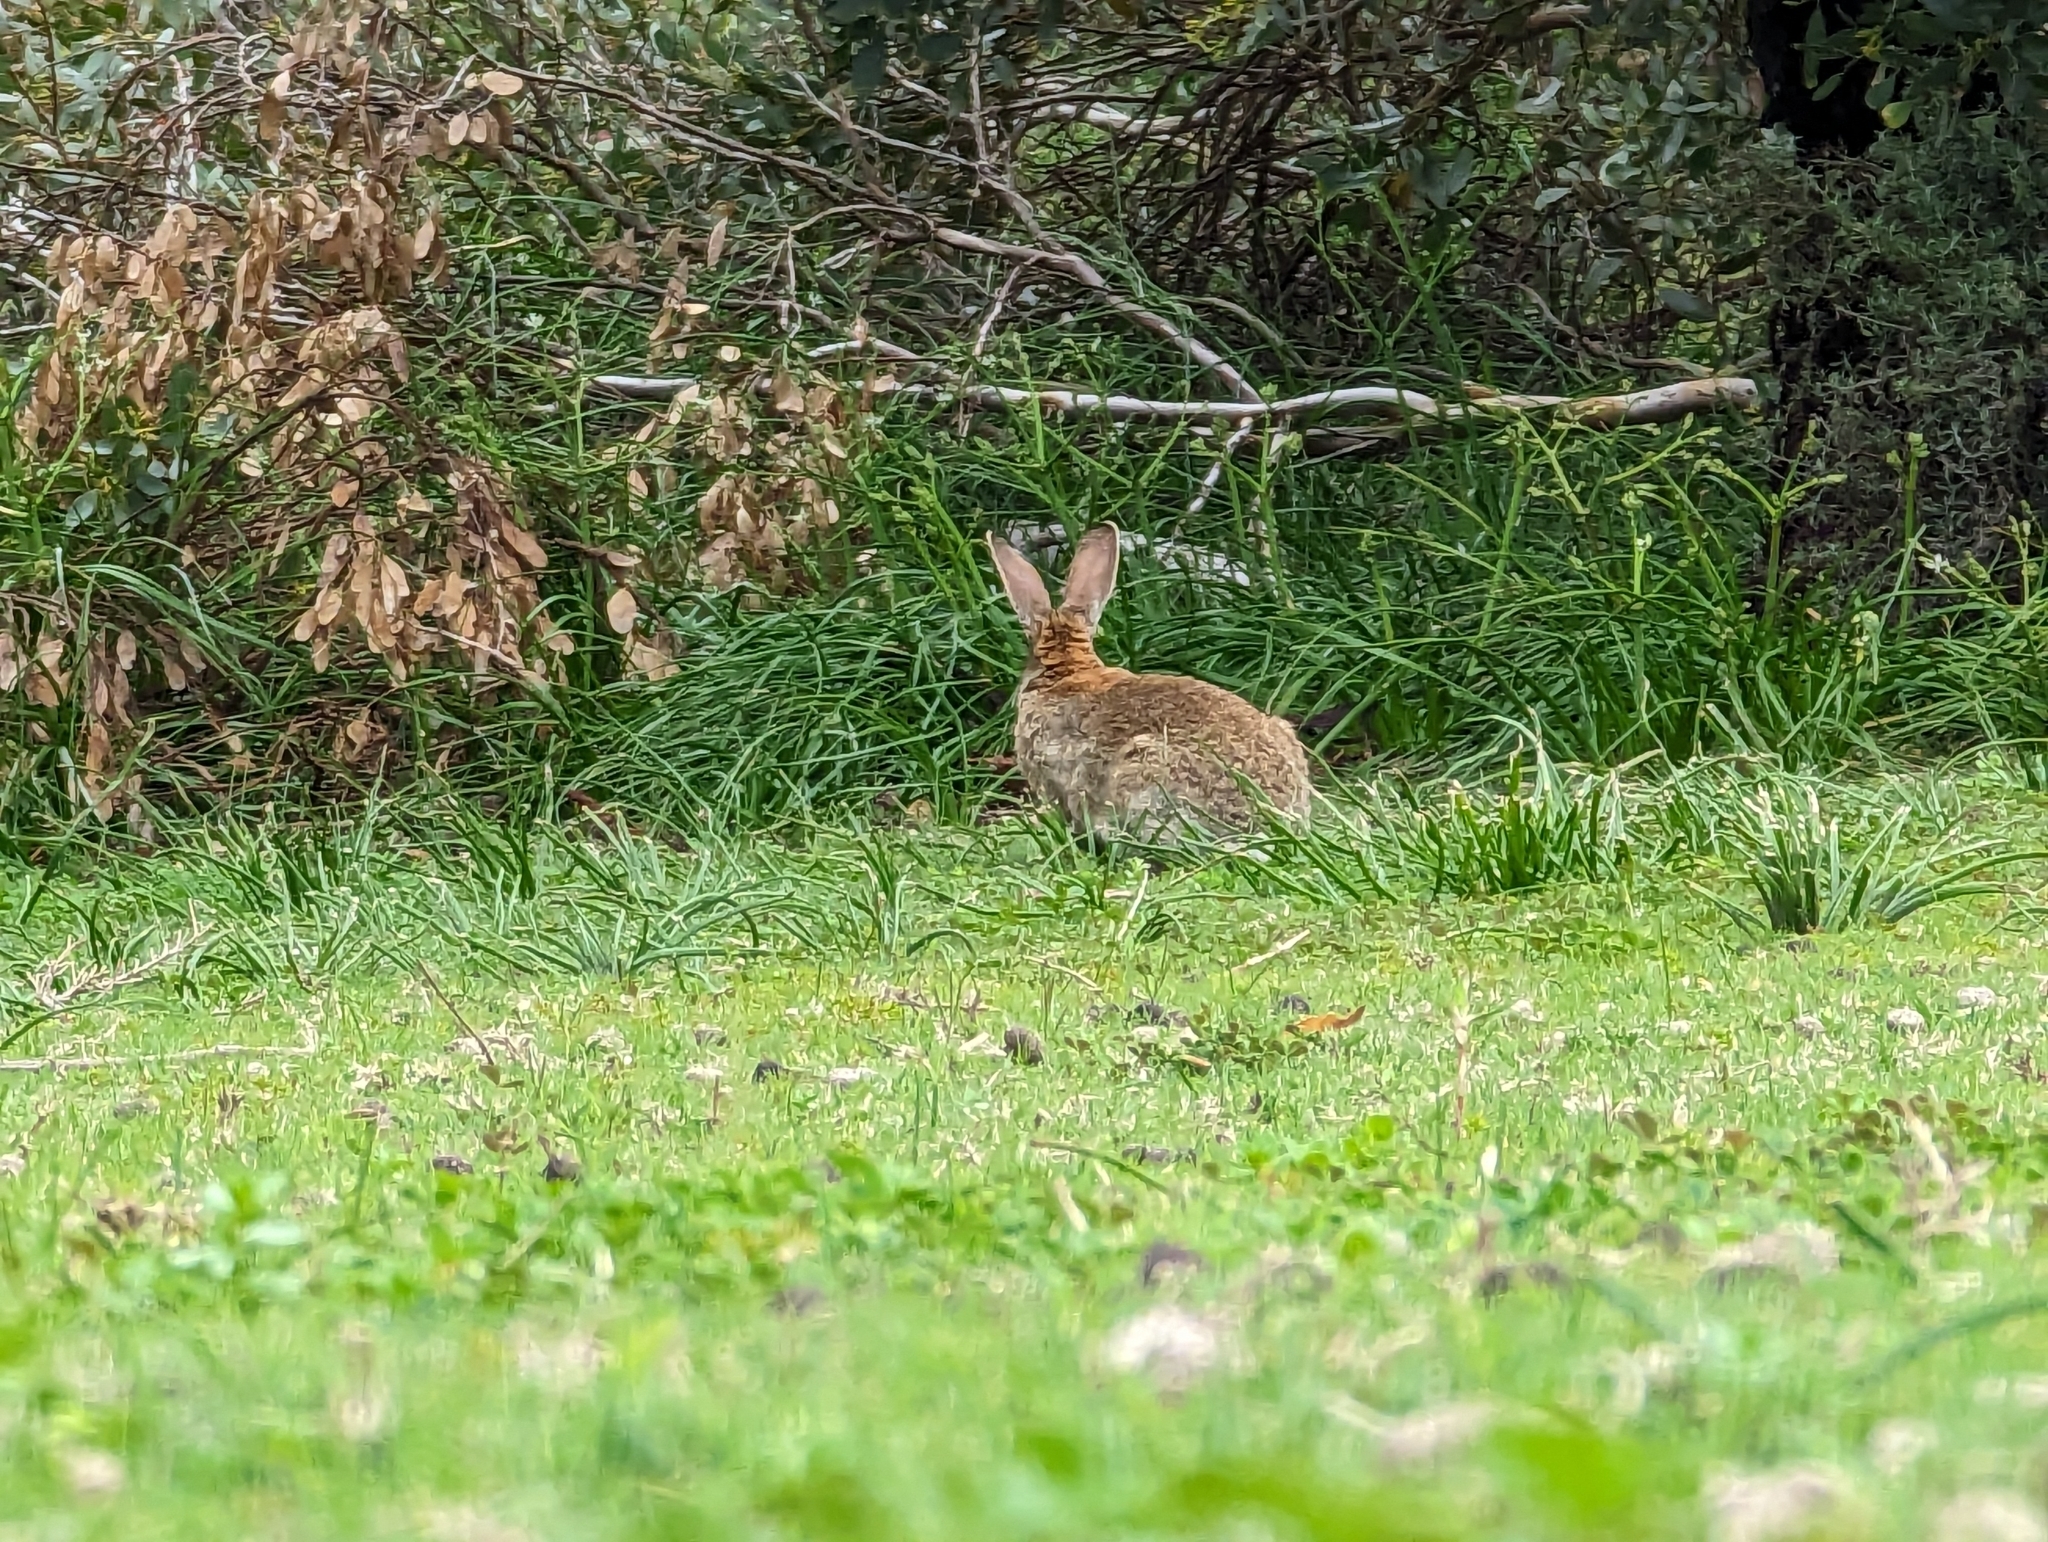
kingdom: Animalia
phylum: Chordata
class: Mammalia
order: Lagomorpha
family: Leporidae
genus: Oryctolagus
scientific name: Oryctolagus cuniculus
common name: European rabbit
